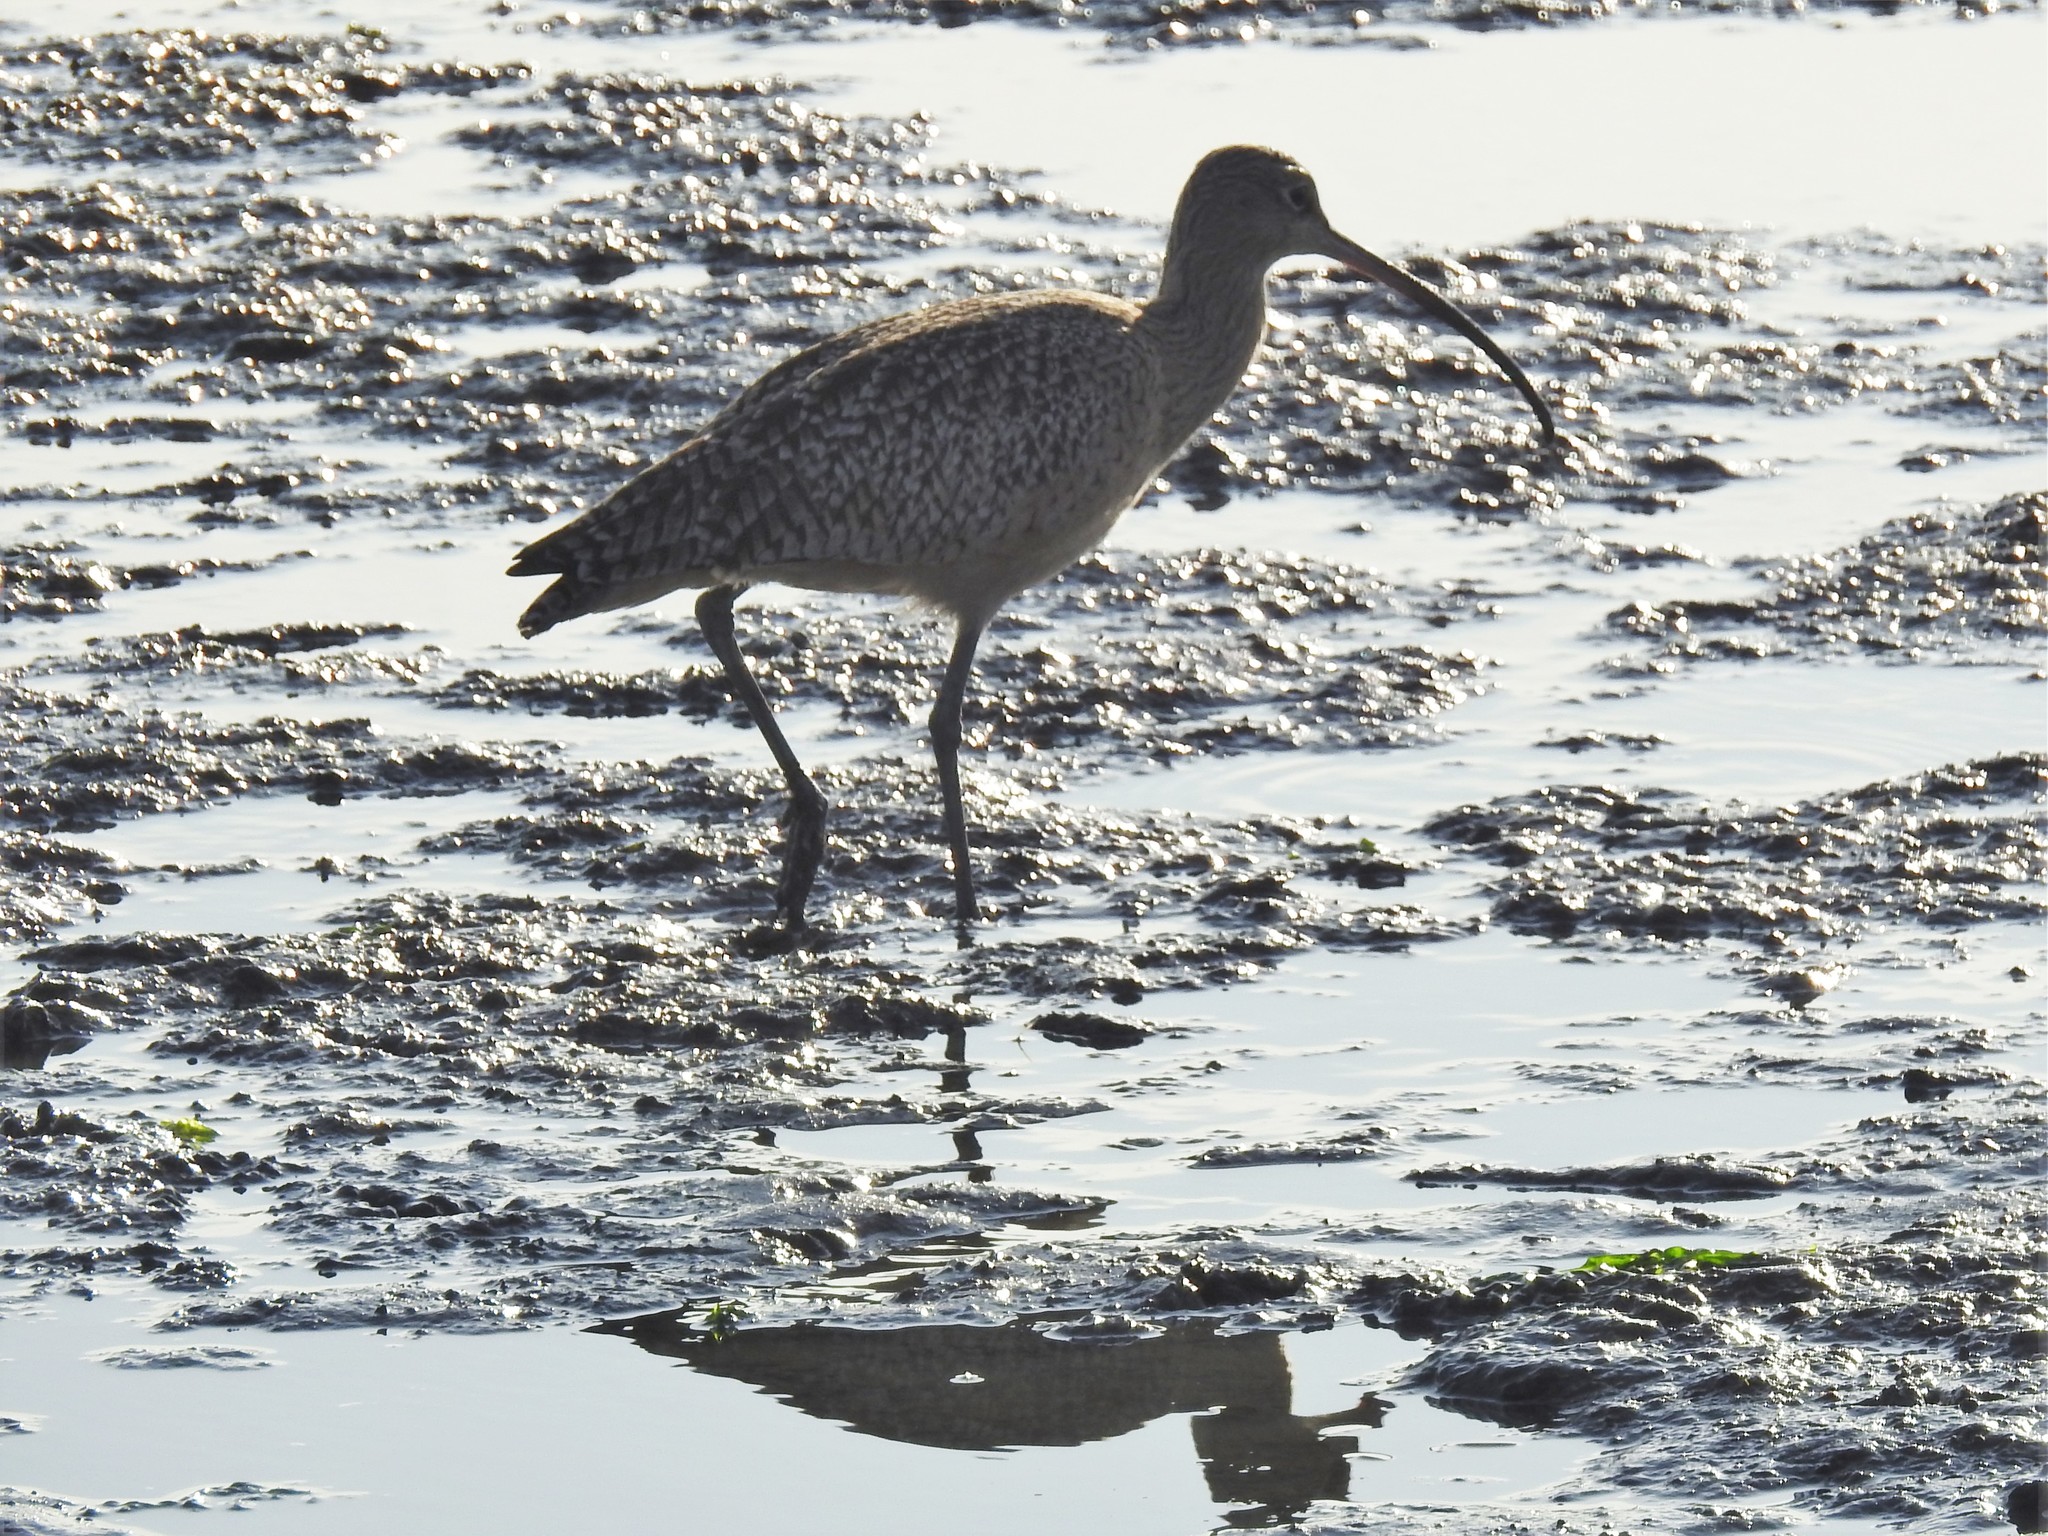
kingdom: Animalia
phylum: Chordata
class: Aves
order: Charadriiformes
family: Scolopacidae
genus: Numenius
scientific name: Numenius americanus
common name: Long-billed curlew
